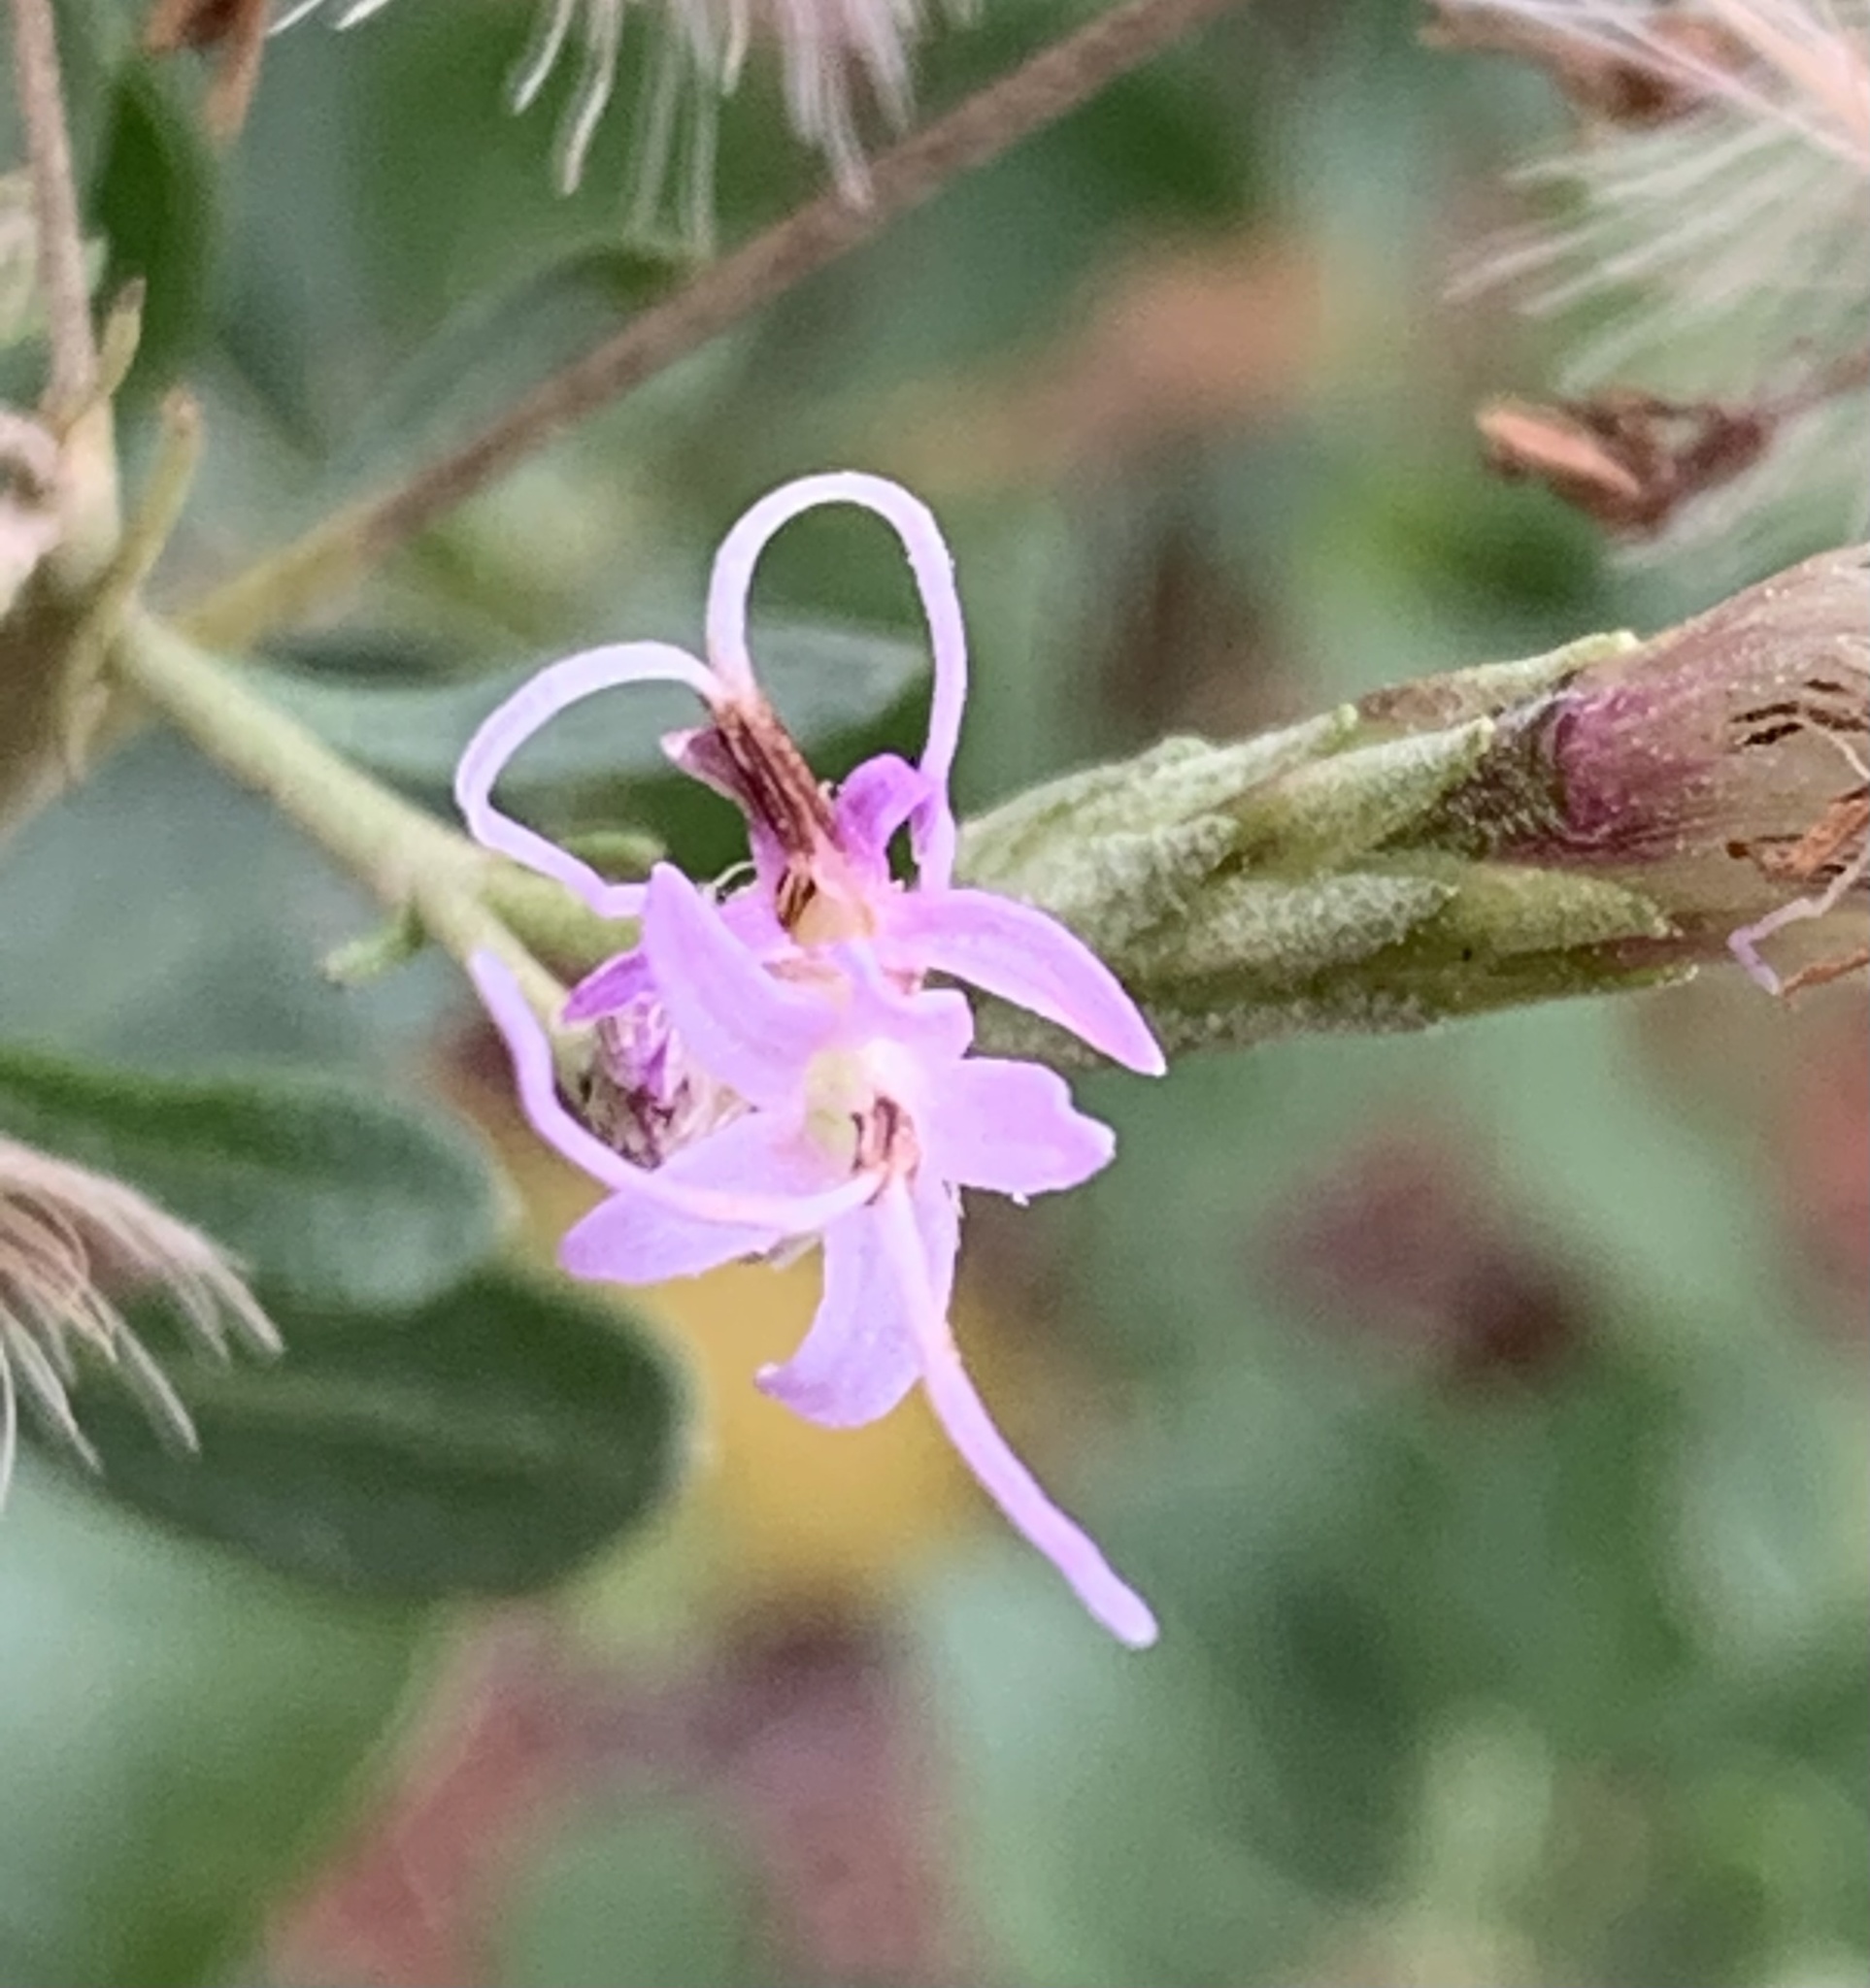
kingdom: Plantae
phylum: Tracheophyta
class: Magnoliopsida
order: Asterales
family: Asteraceae
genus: Garberia
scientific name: Garberia heterophylla
